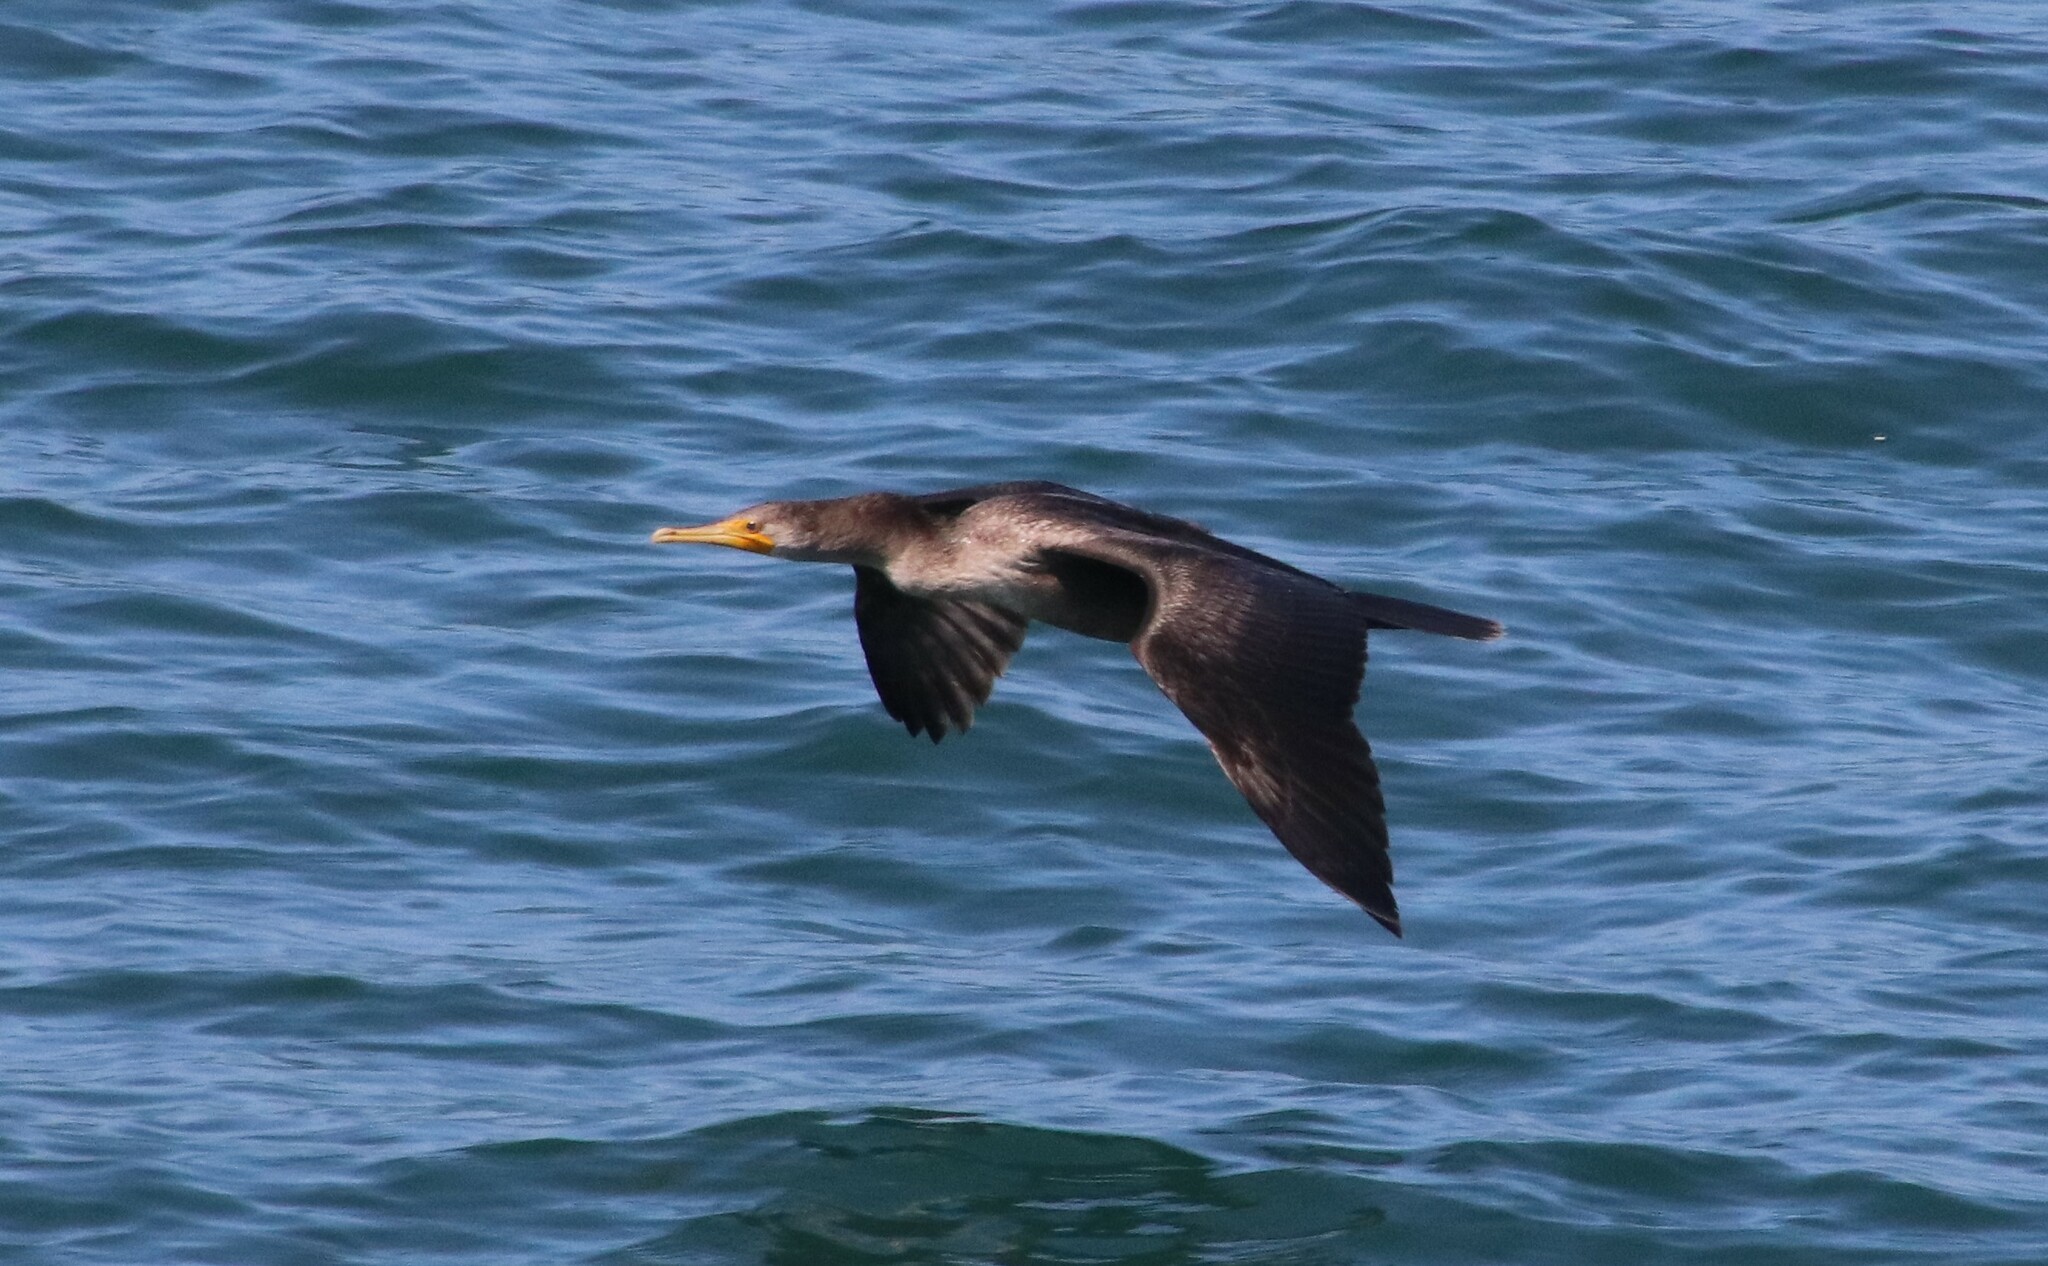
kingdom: Animalia
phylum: Chordata
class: Aves
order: Suliformes
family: Phalacrocoracidae
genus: Phalacrocorax
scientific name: Phalacrocorax auritus
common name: Double-crested cormorant
